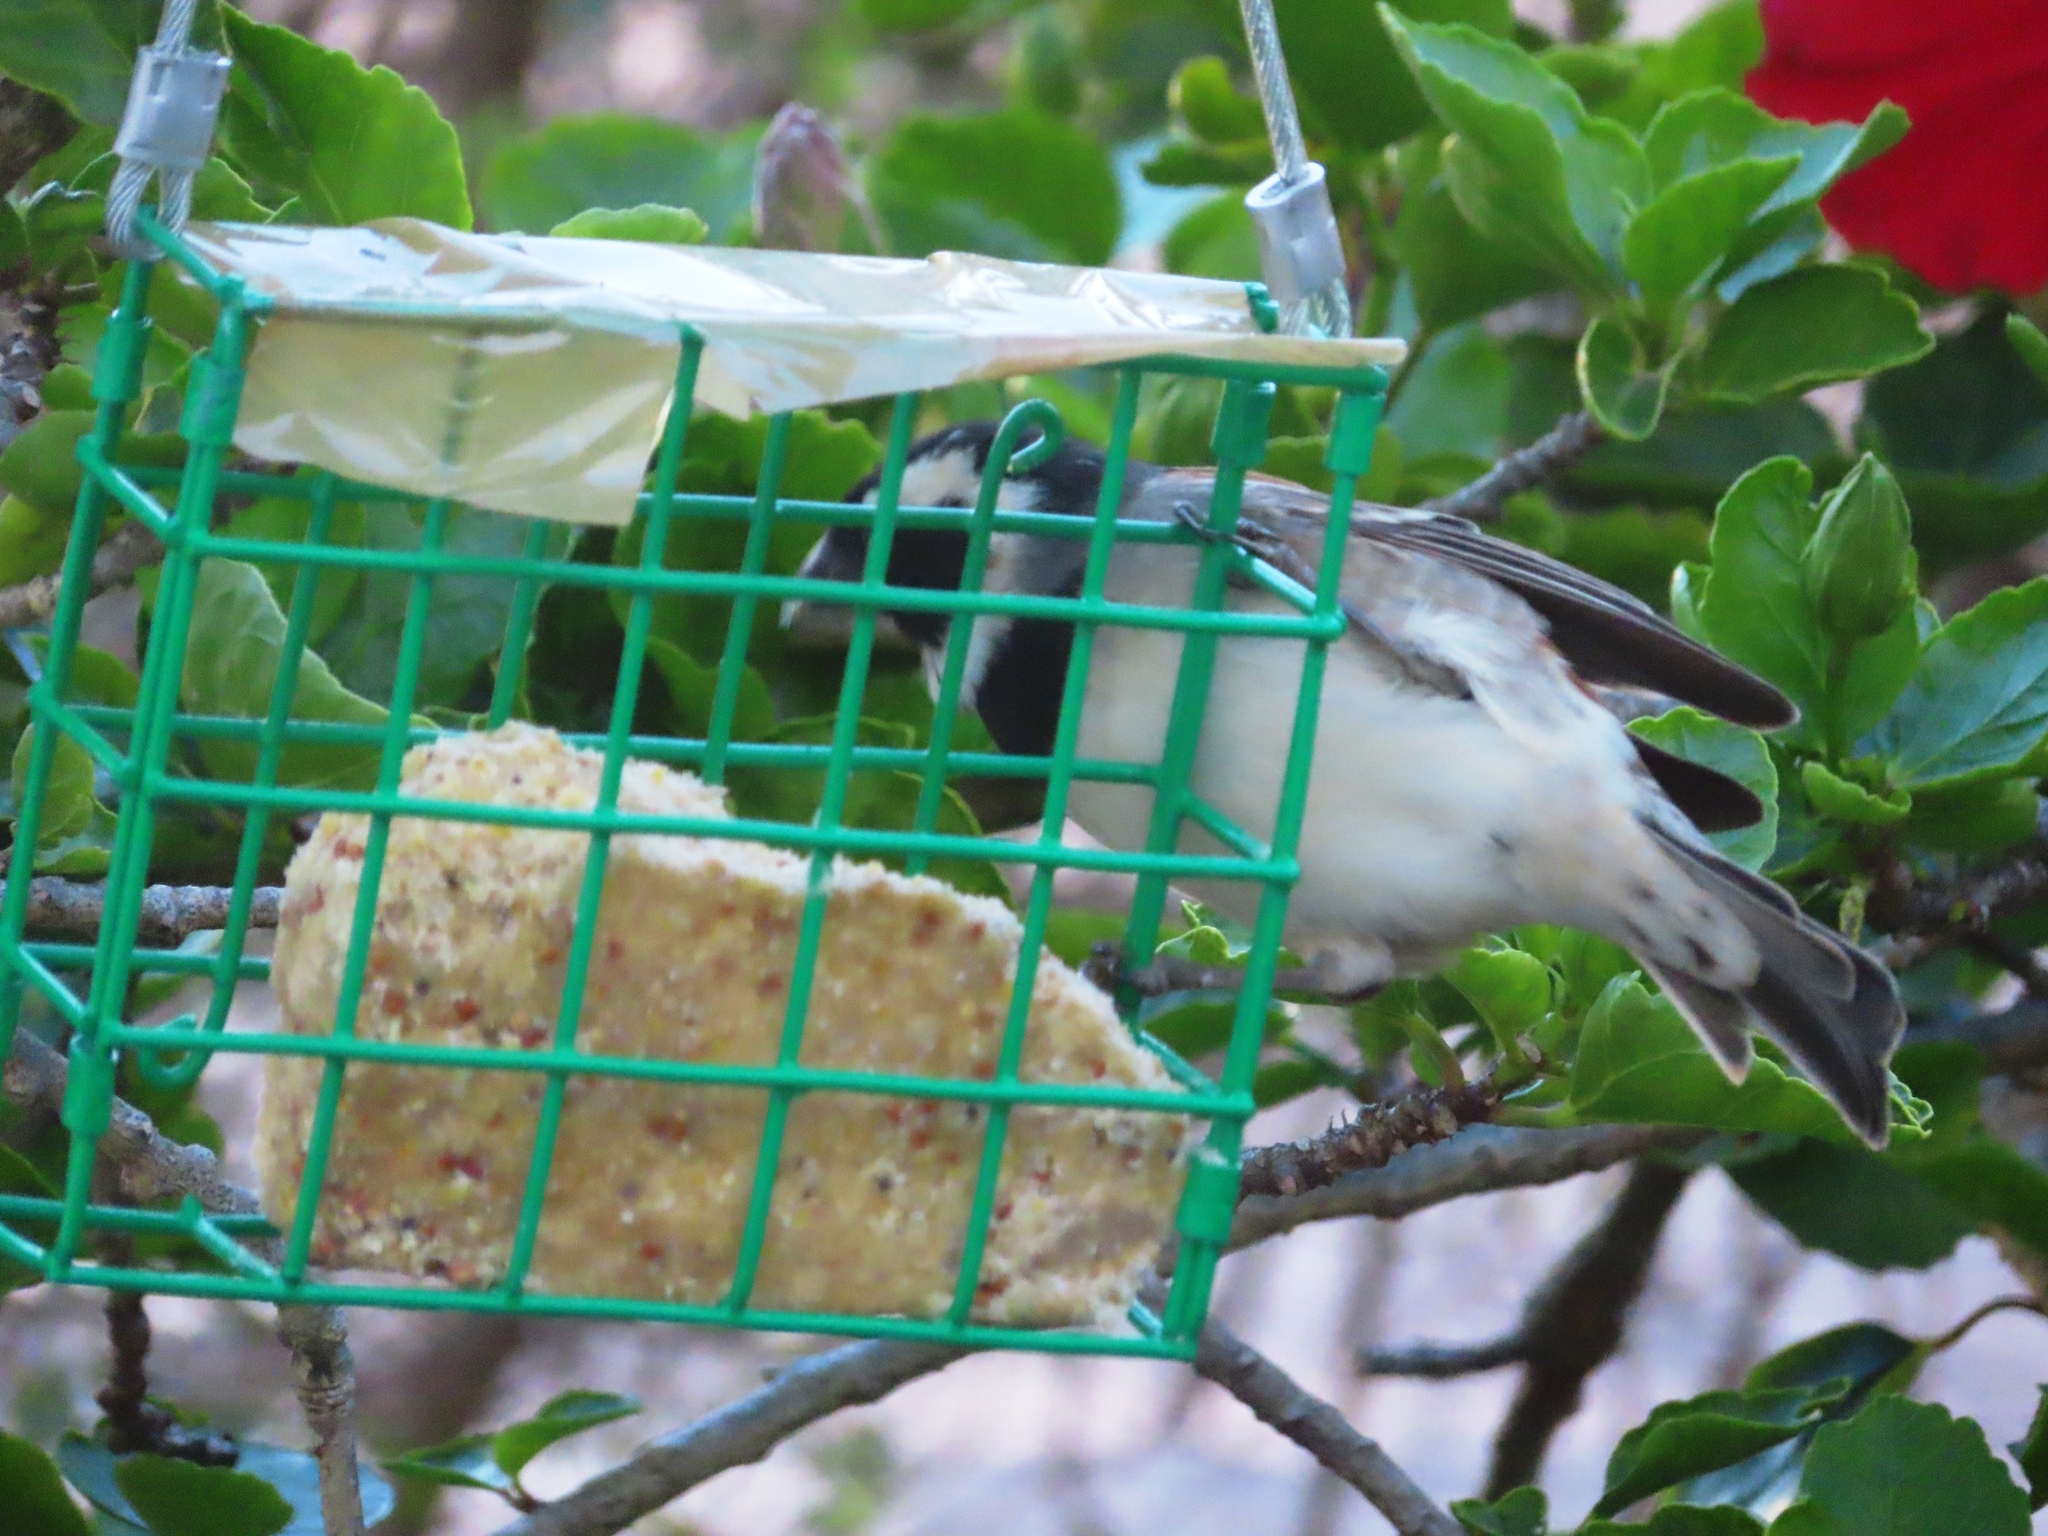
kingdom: Animalia
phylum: Chordata
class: Aves
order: Passeriformes
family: Passeridae
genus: Passer
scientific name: Passer melanurus
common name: Cape sparrow
